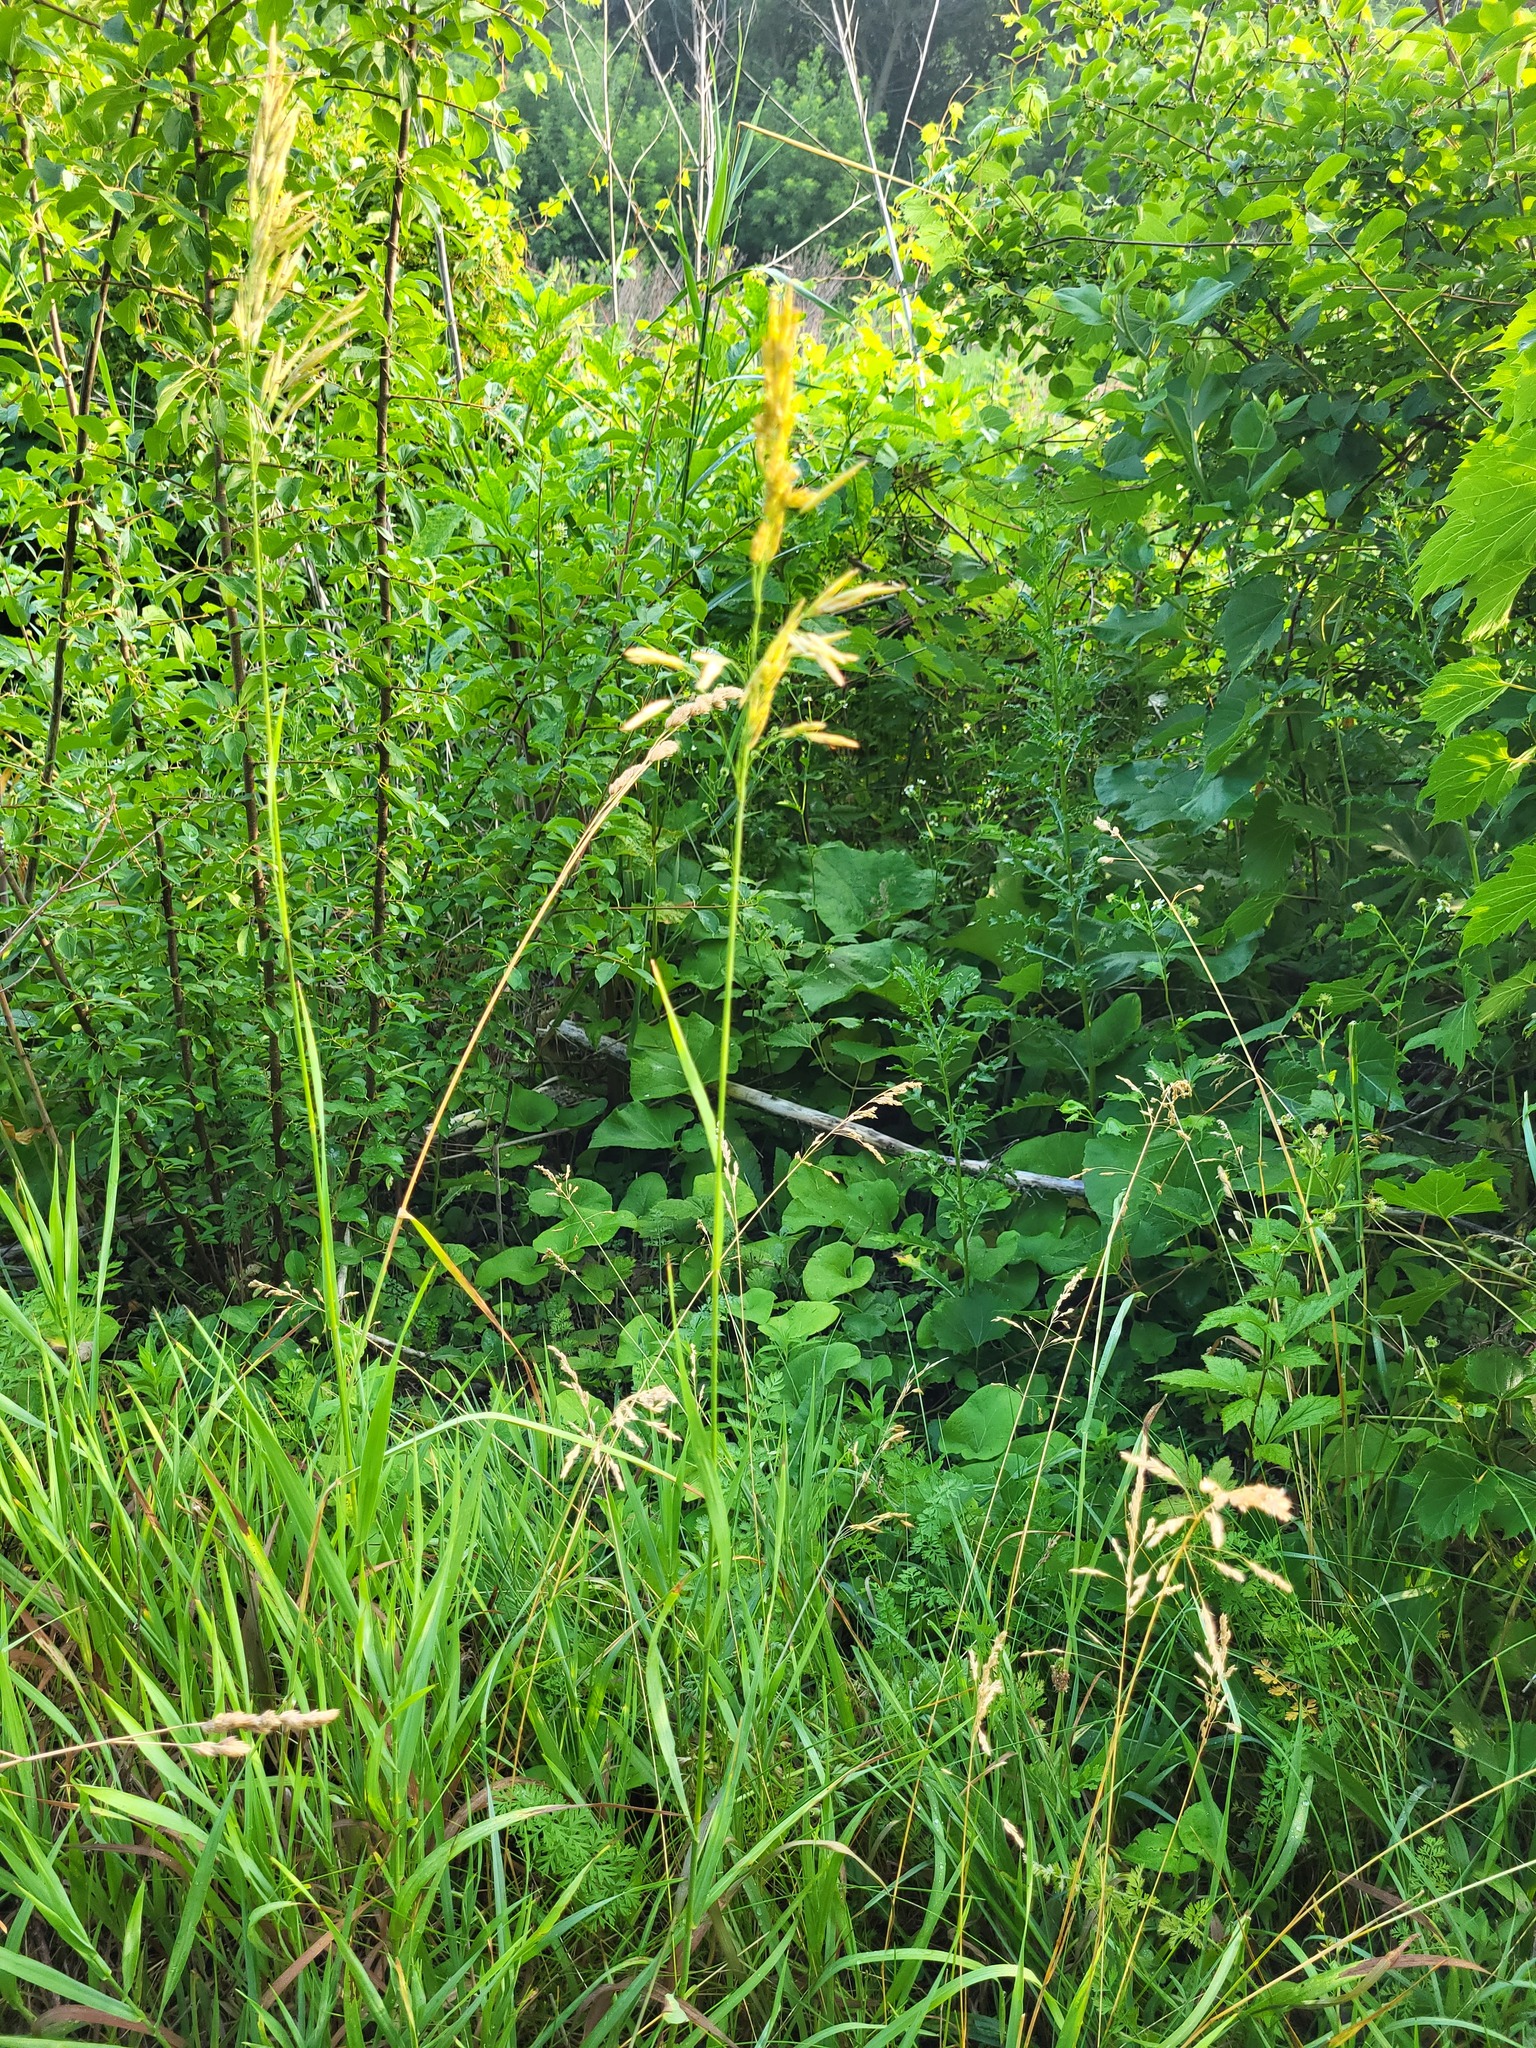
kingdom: Plantae
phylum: Tracheophyta
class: Liliopsida
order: Poales
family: Poaceae
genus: Bromus
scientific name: Bromus inermis
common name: Smooth brome
